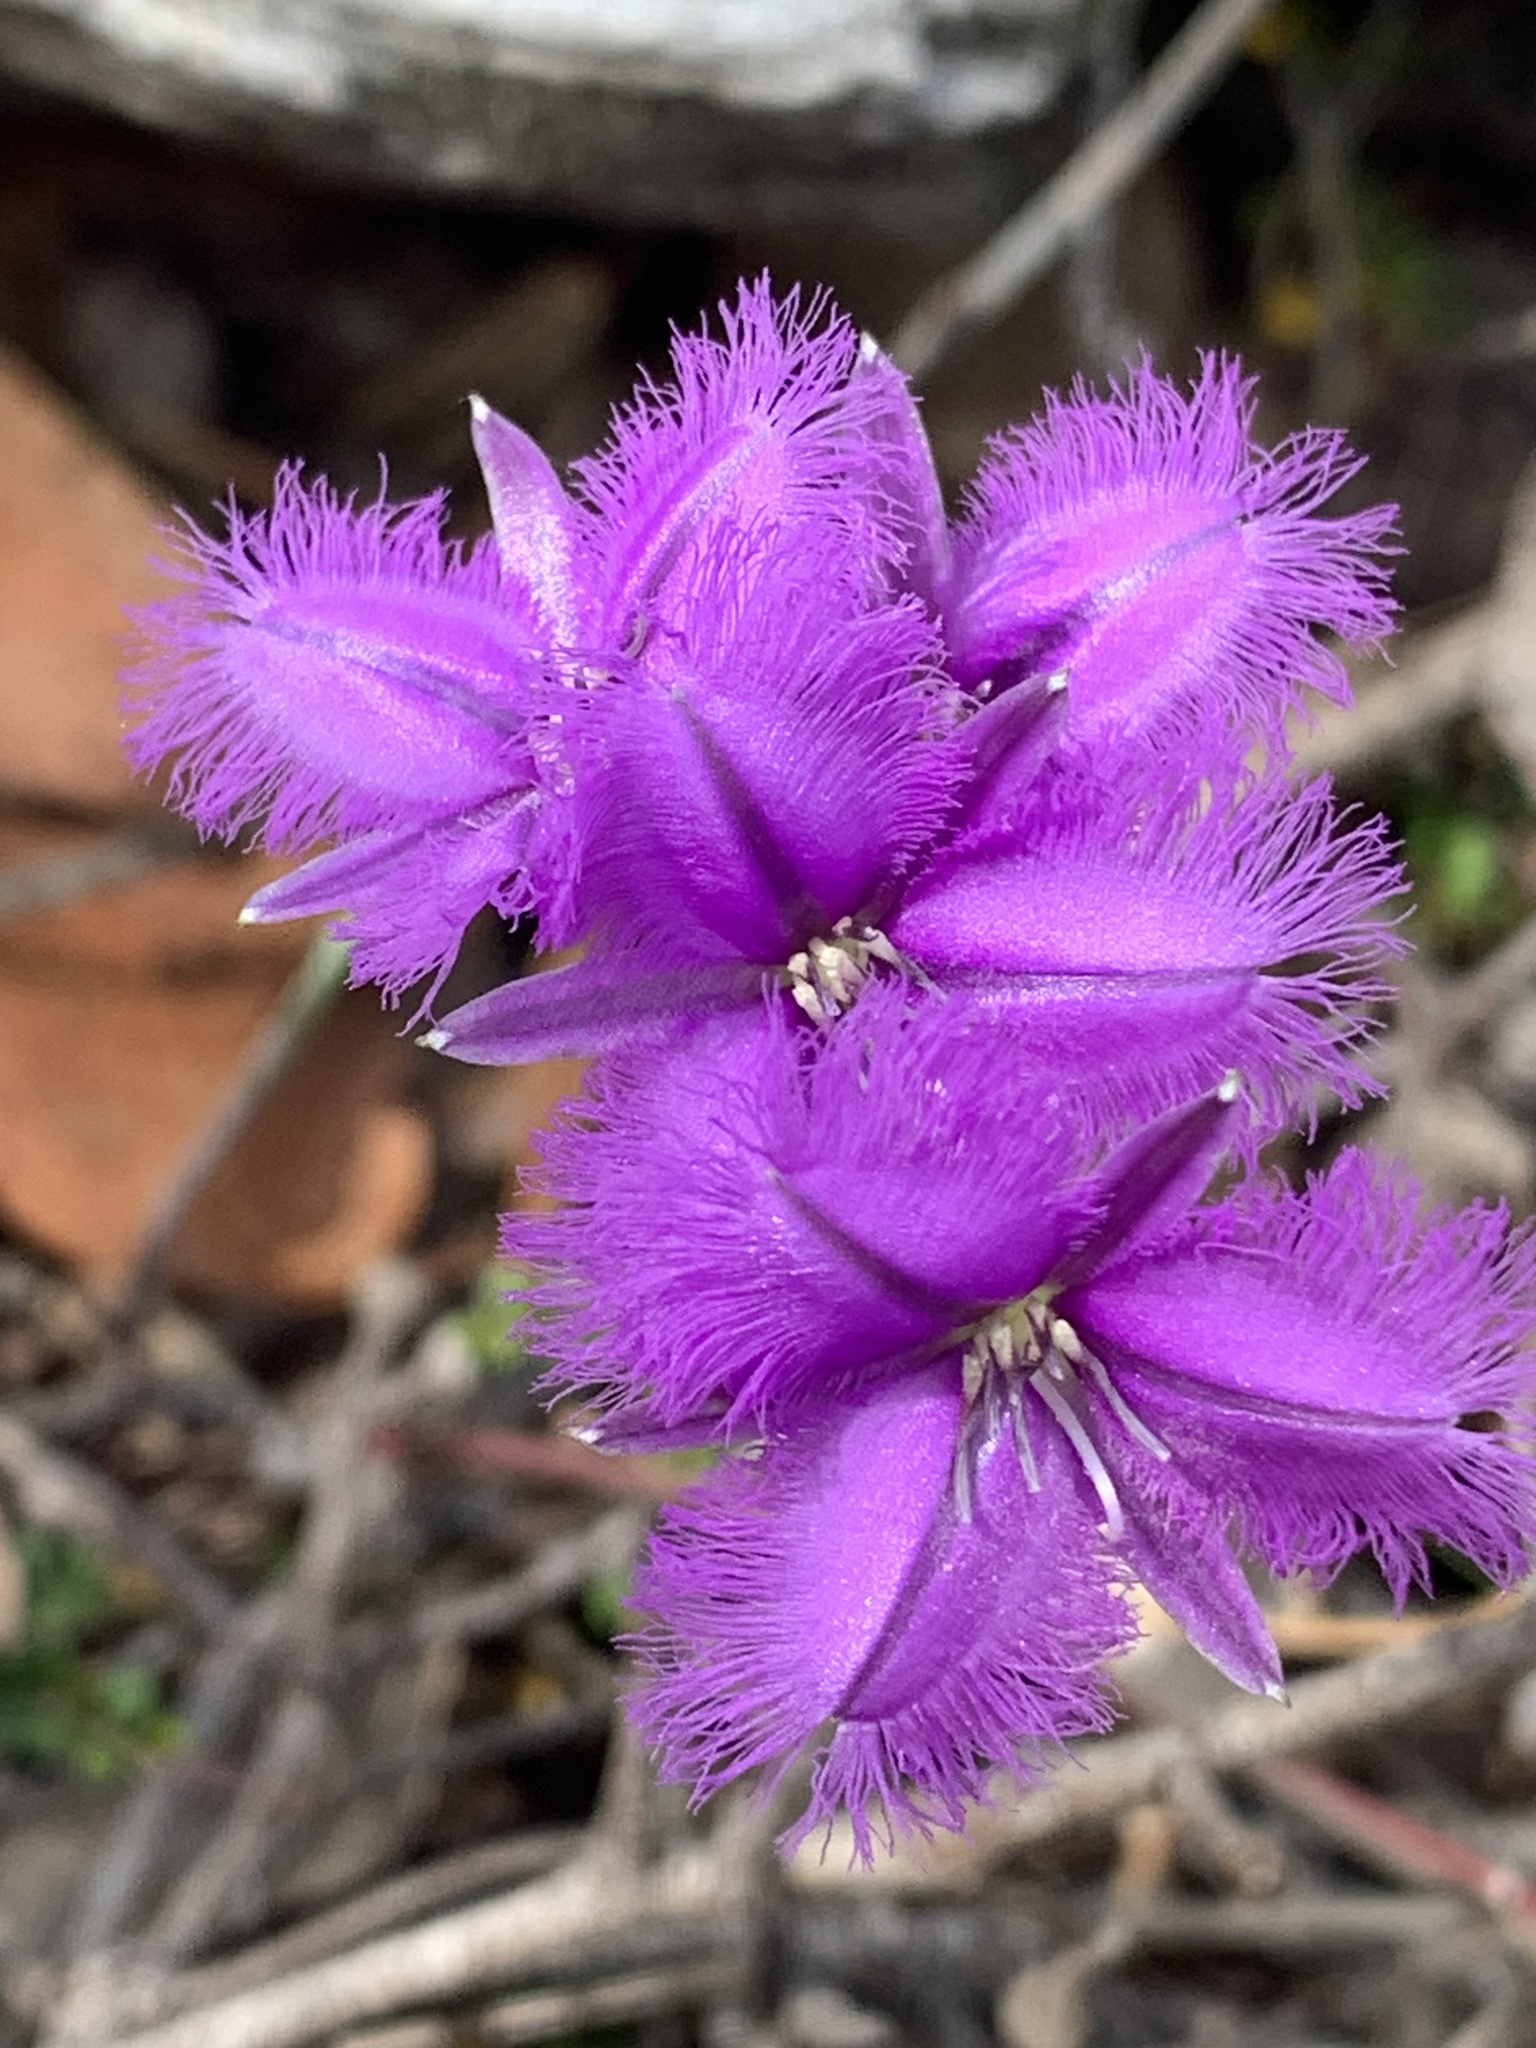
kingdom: Plantae
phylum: Tracheophyta
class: Liliopsida
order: Asparagales
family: Asparagaceae
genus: Thysanotus
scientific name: Thysanotus tuberosus
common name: Common fringed-lily
